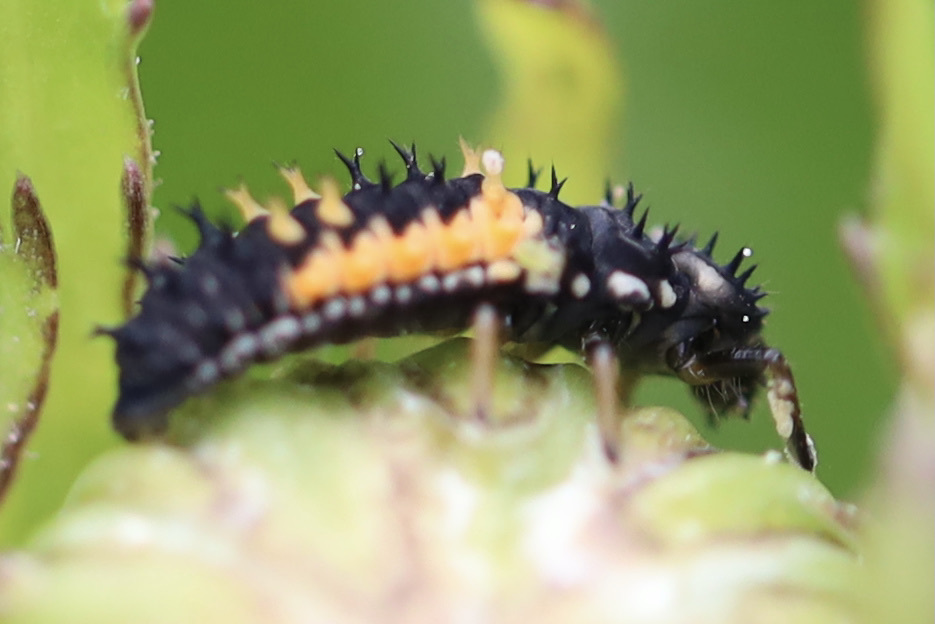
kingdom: Animalia
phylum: Arthropoda
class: Insecta
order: Coleoptera
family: Coccinellidae
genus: Harmonia
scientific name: Harmonia axyridis
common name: Harlequin ladybird
